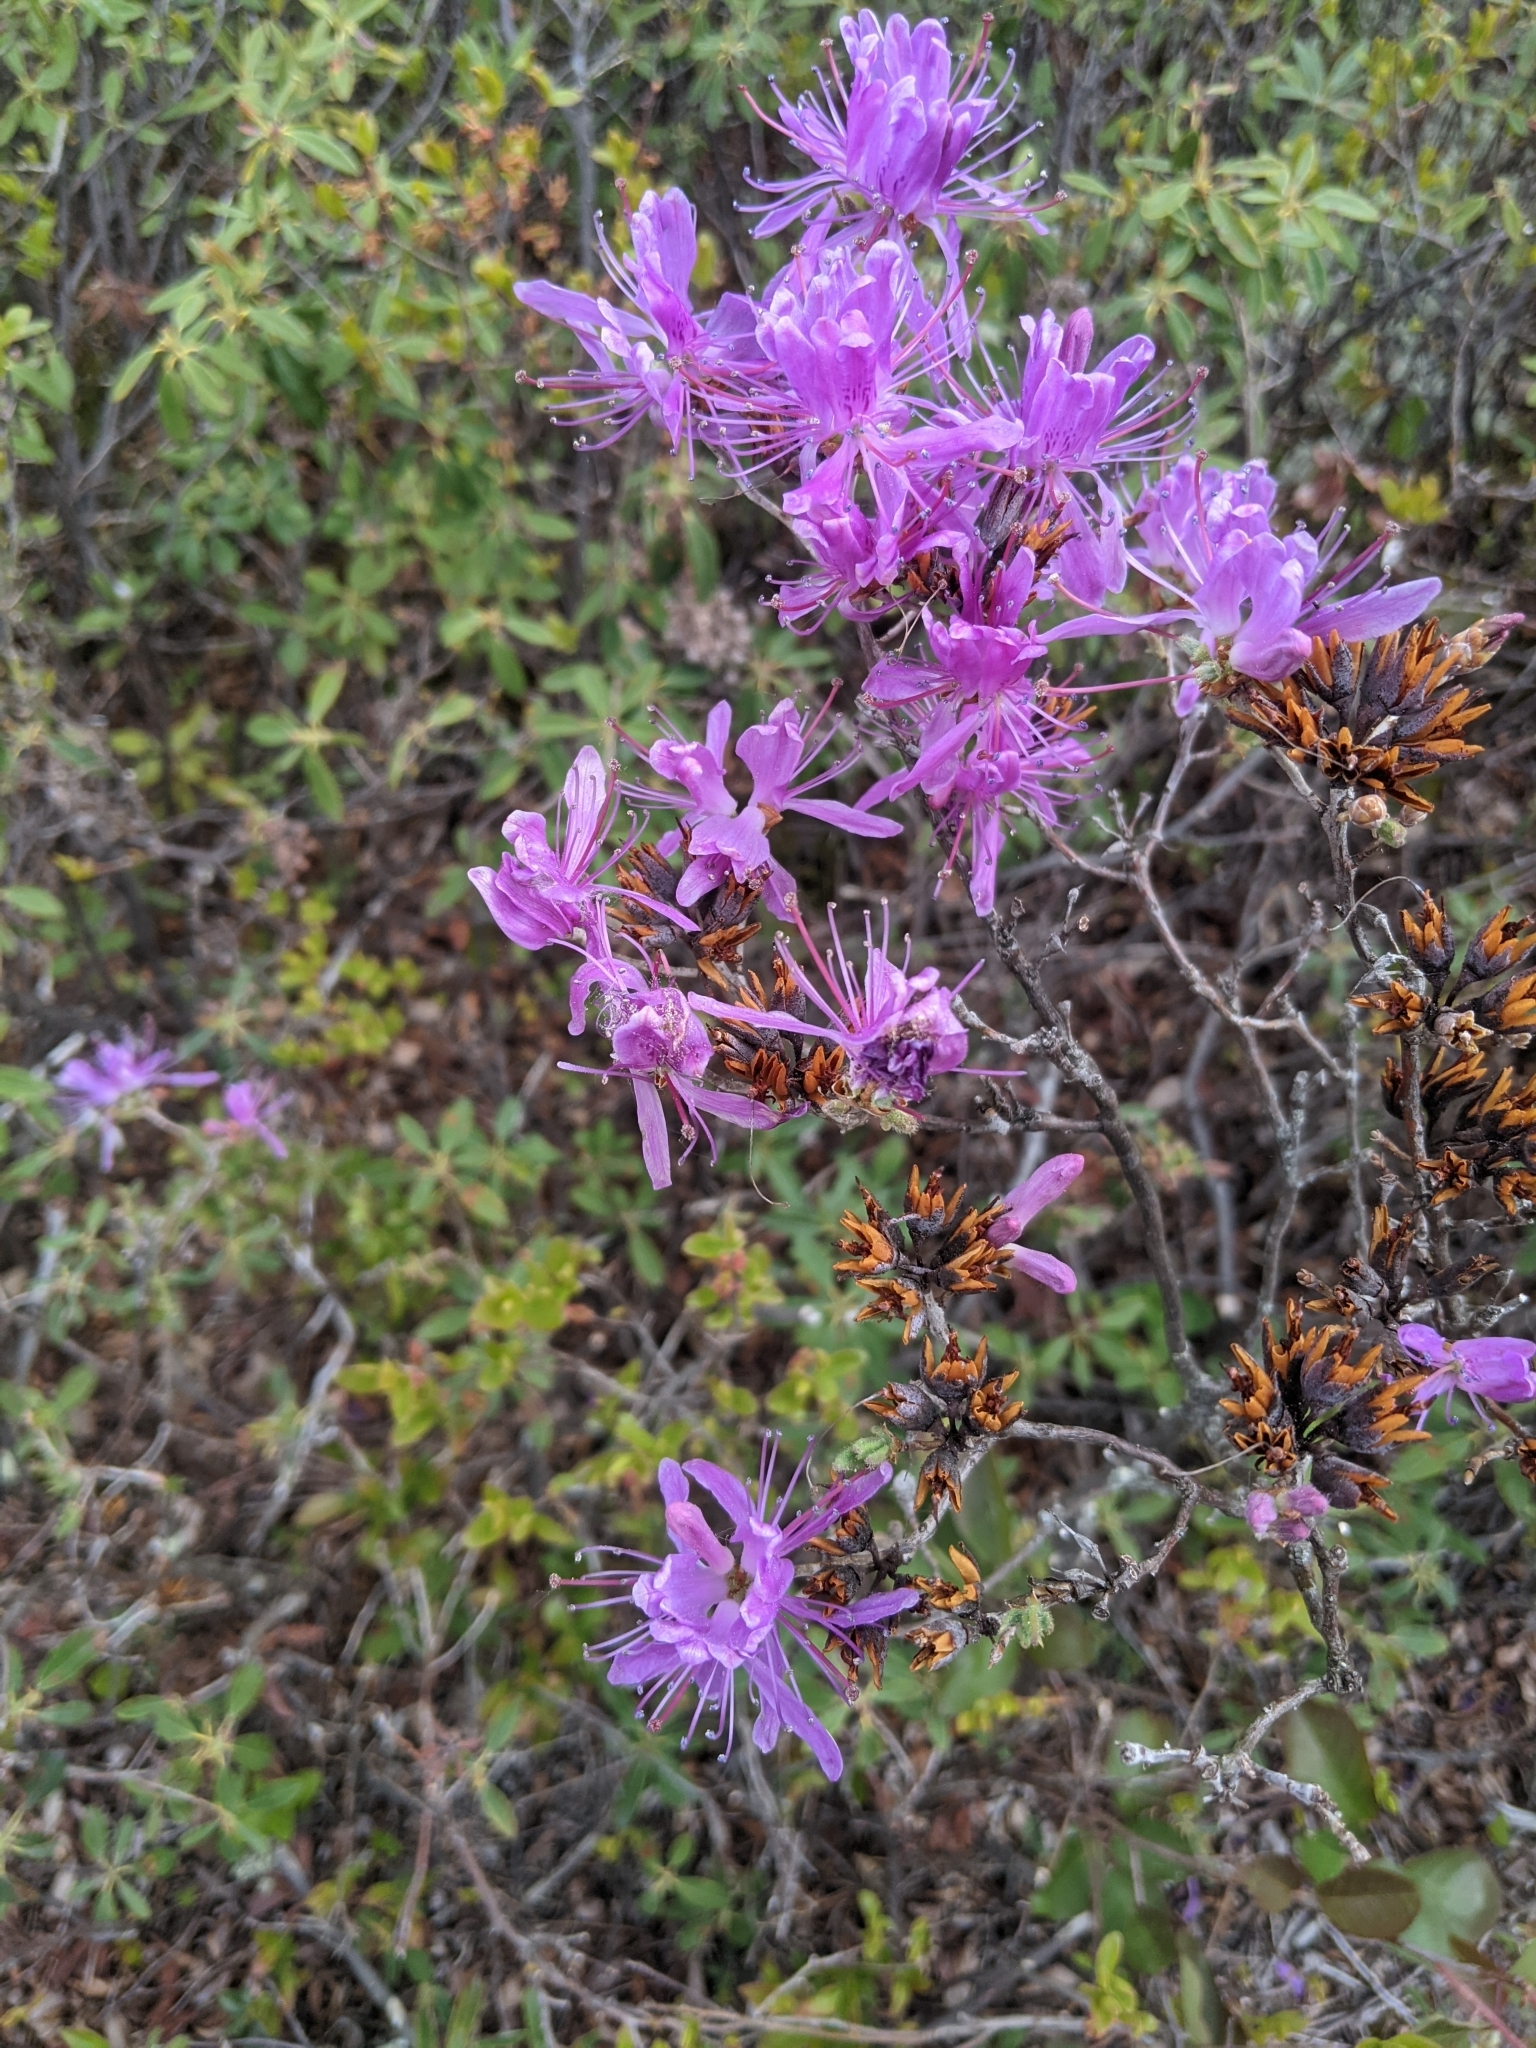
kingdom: Plantae
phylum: Tracheophyta
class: Magnoliopsida
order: Ericales
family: Ericaceae
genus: Rhododendron
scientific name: Rhododendron canadense
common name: Rhodora
